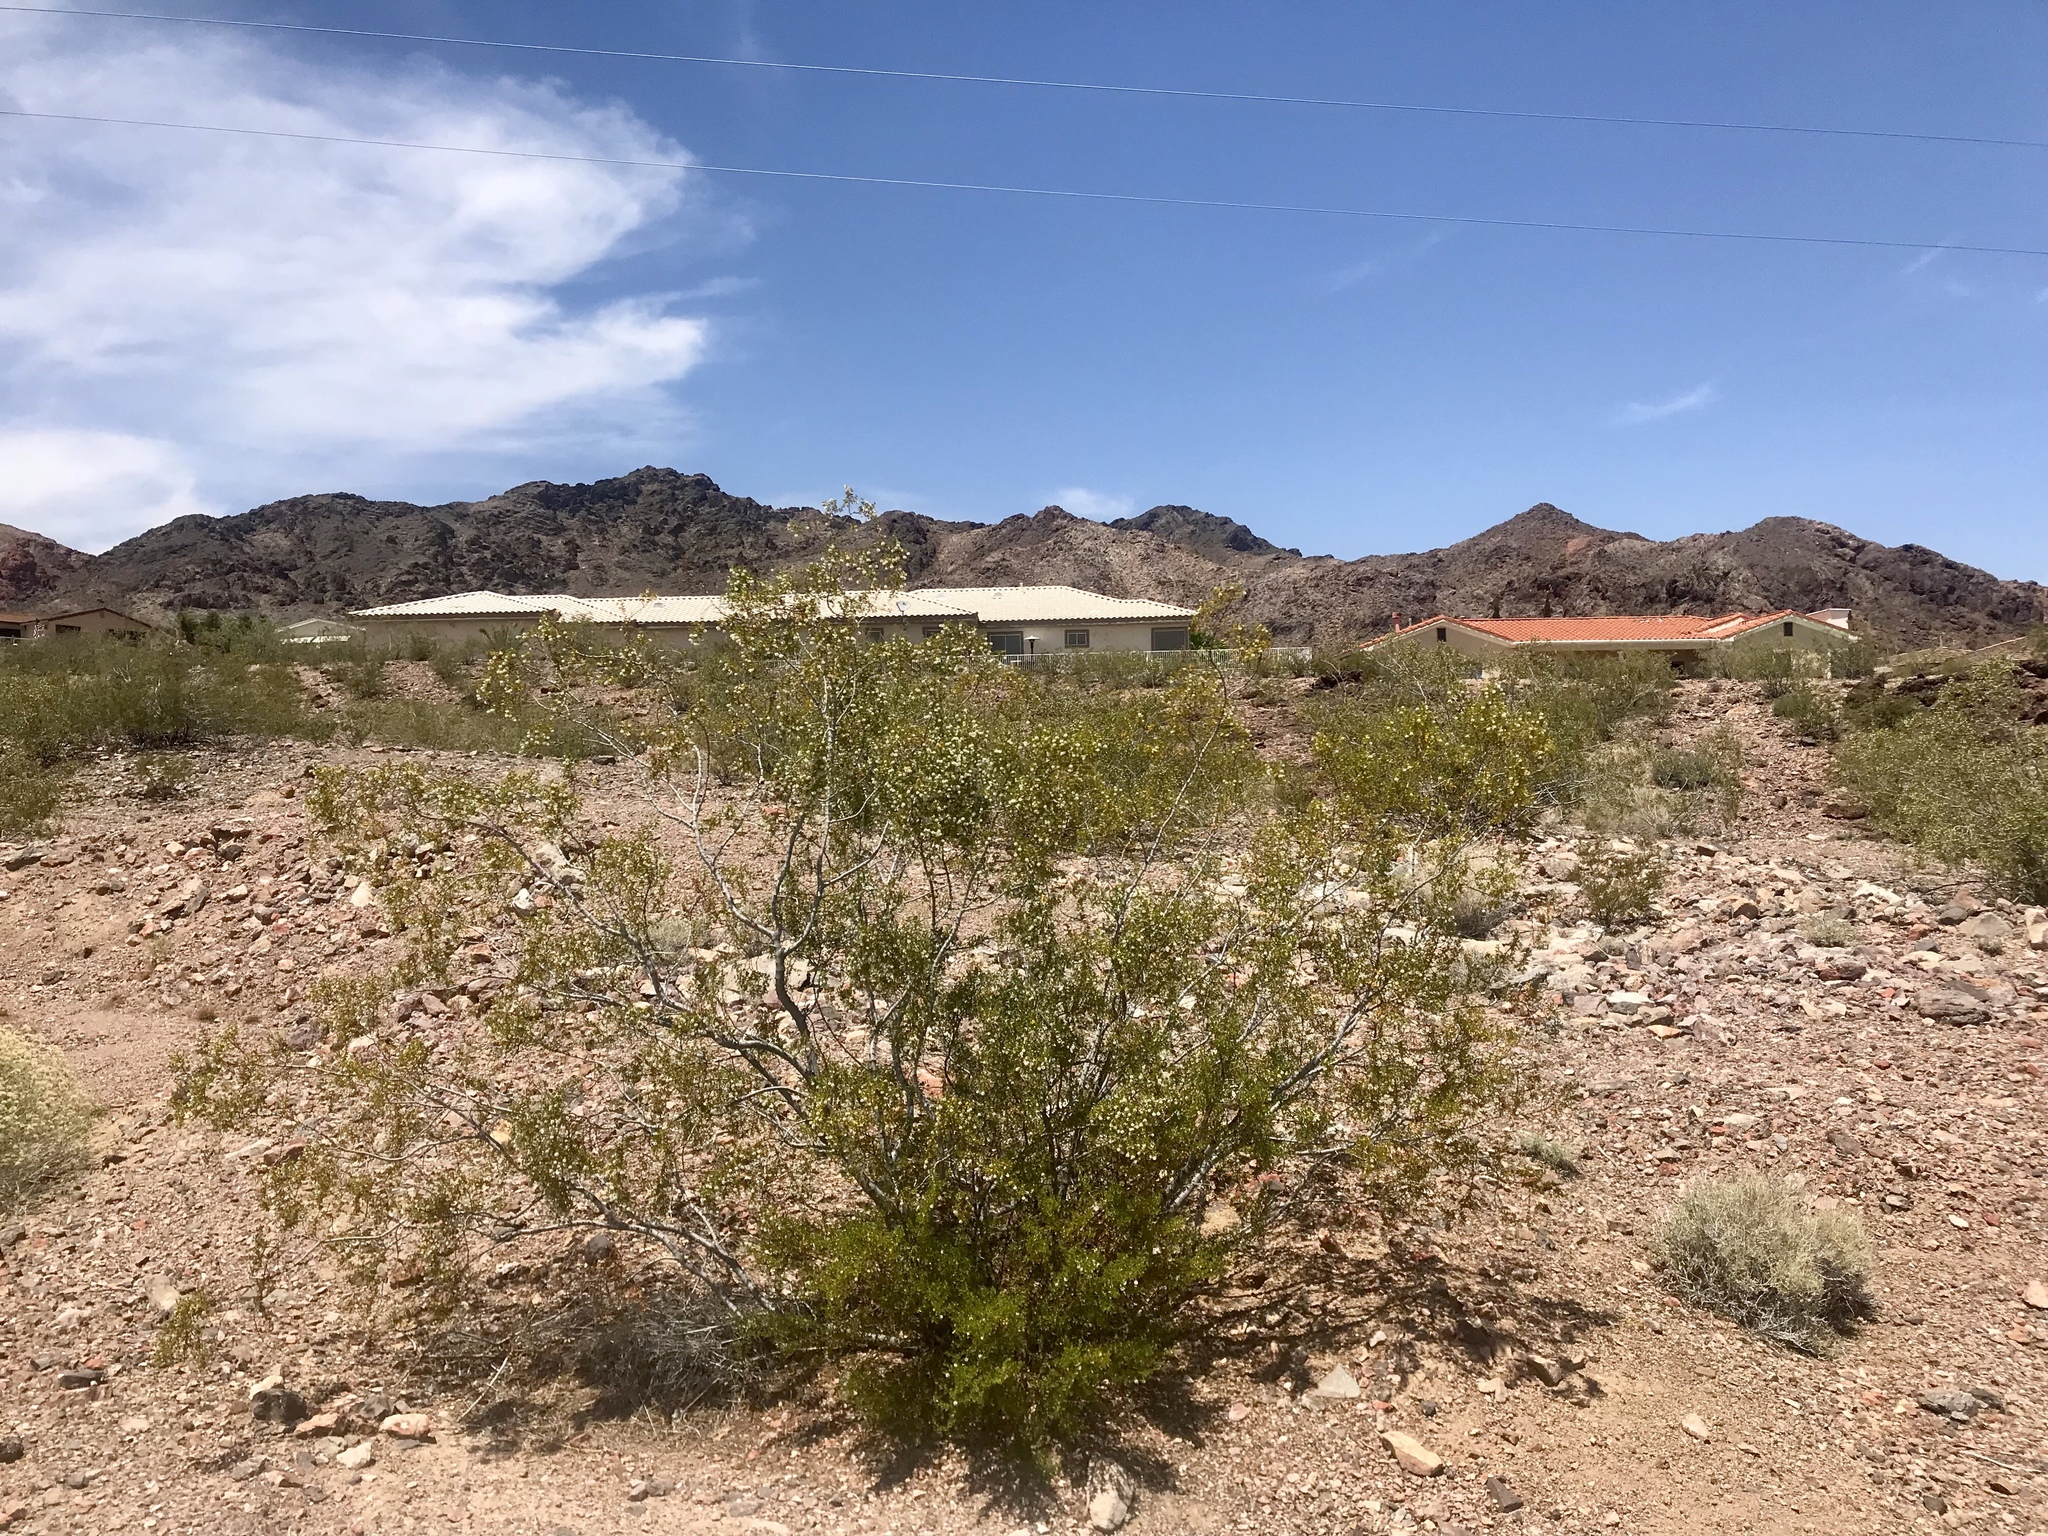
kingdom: Plantae
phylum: Tracheophyta
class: Magnoliopsida
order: Zygophyllales
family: Zygophyllaceae
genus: Larrea
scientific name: Larrea tridentata
